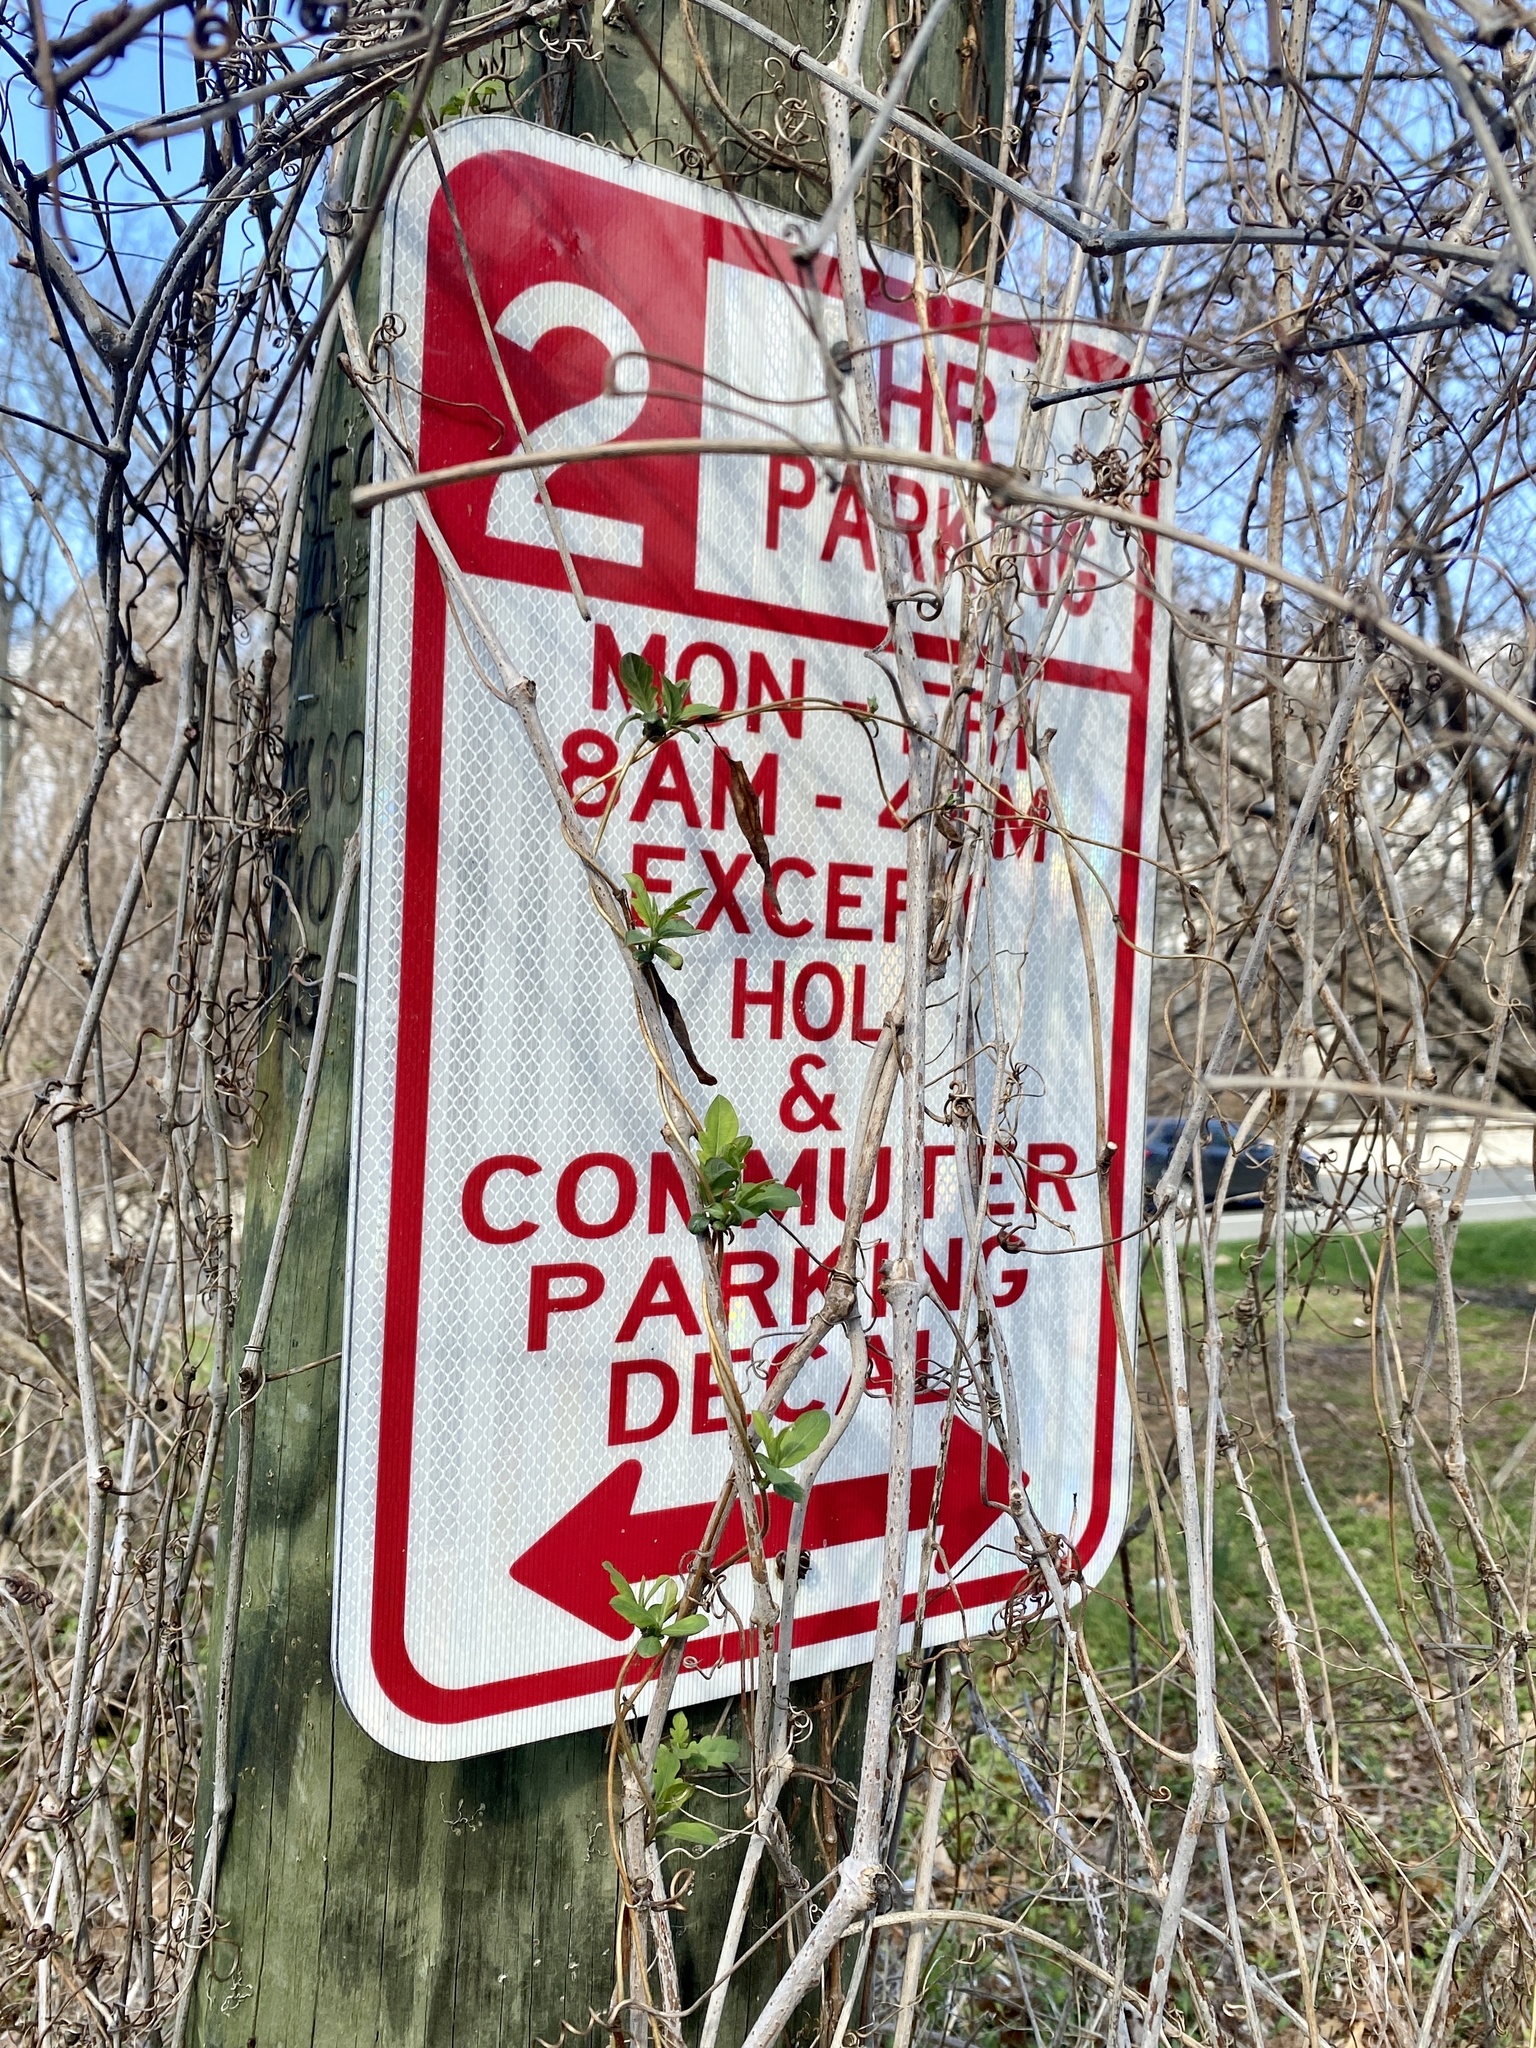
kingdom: Plantae
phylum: Tracheophyta
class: Magnoliopsida
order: Dipsacales
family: Caprifoliaceae
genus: Lonicera
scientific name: Lonicera japonica
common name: Japanese honeysuckle
